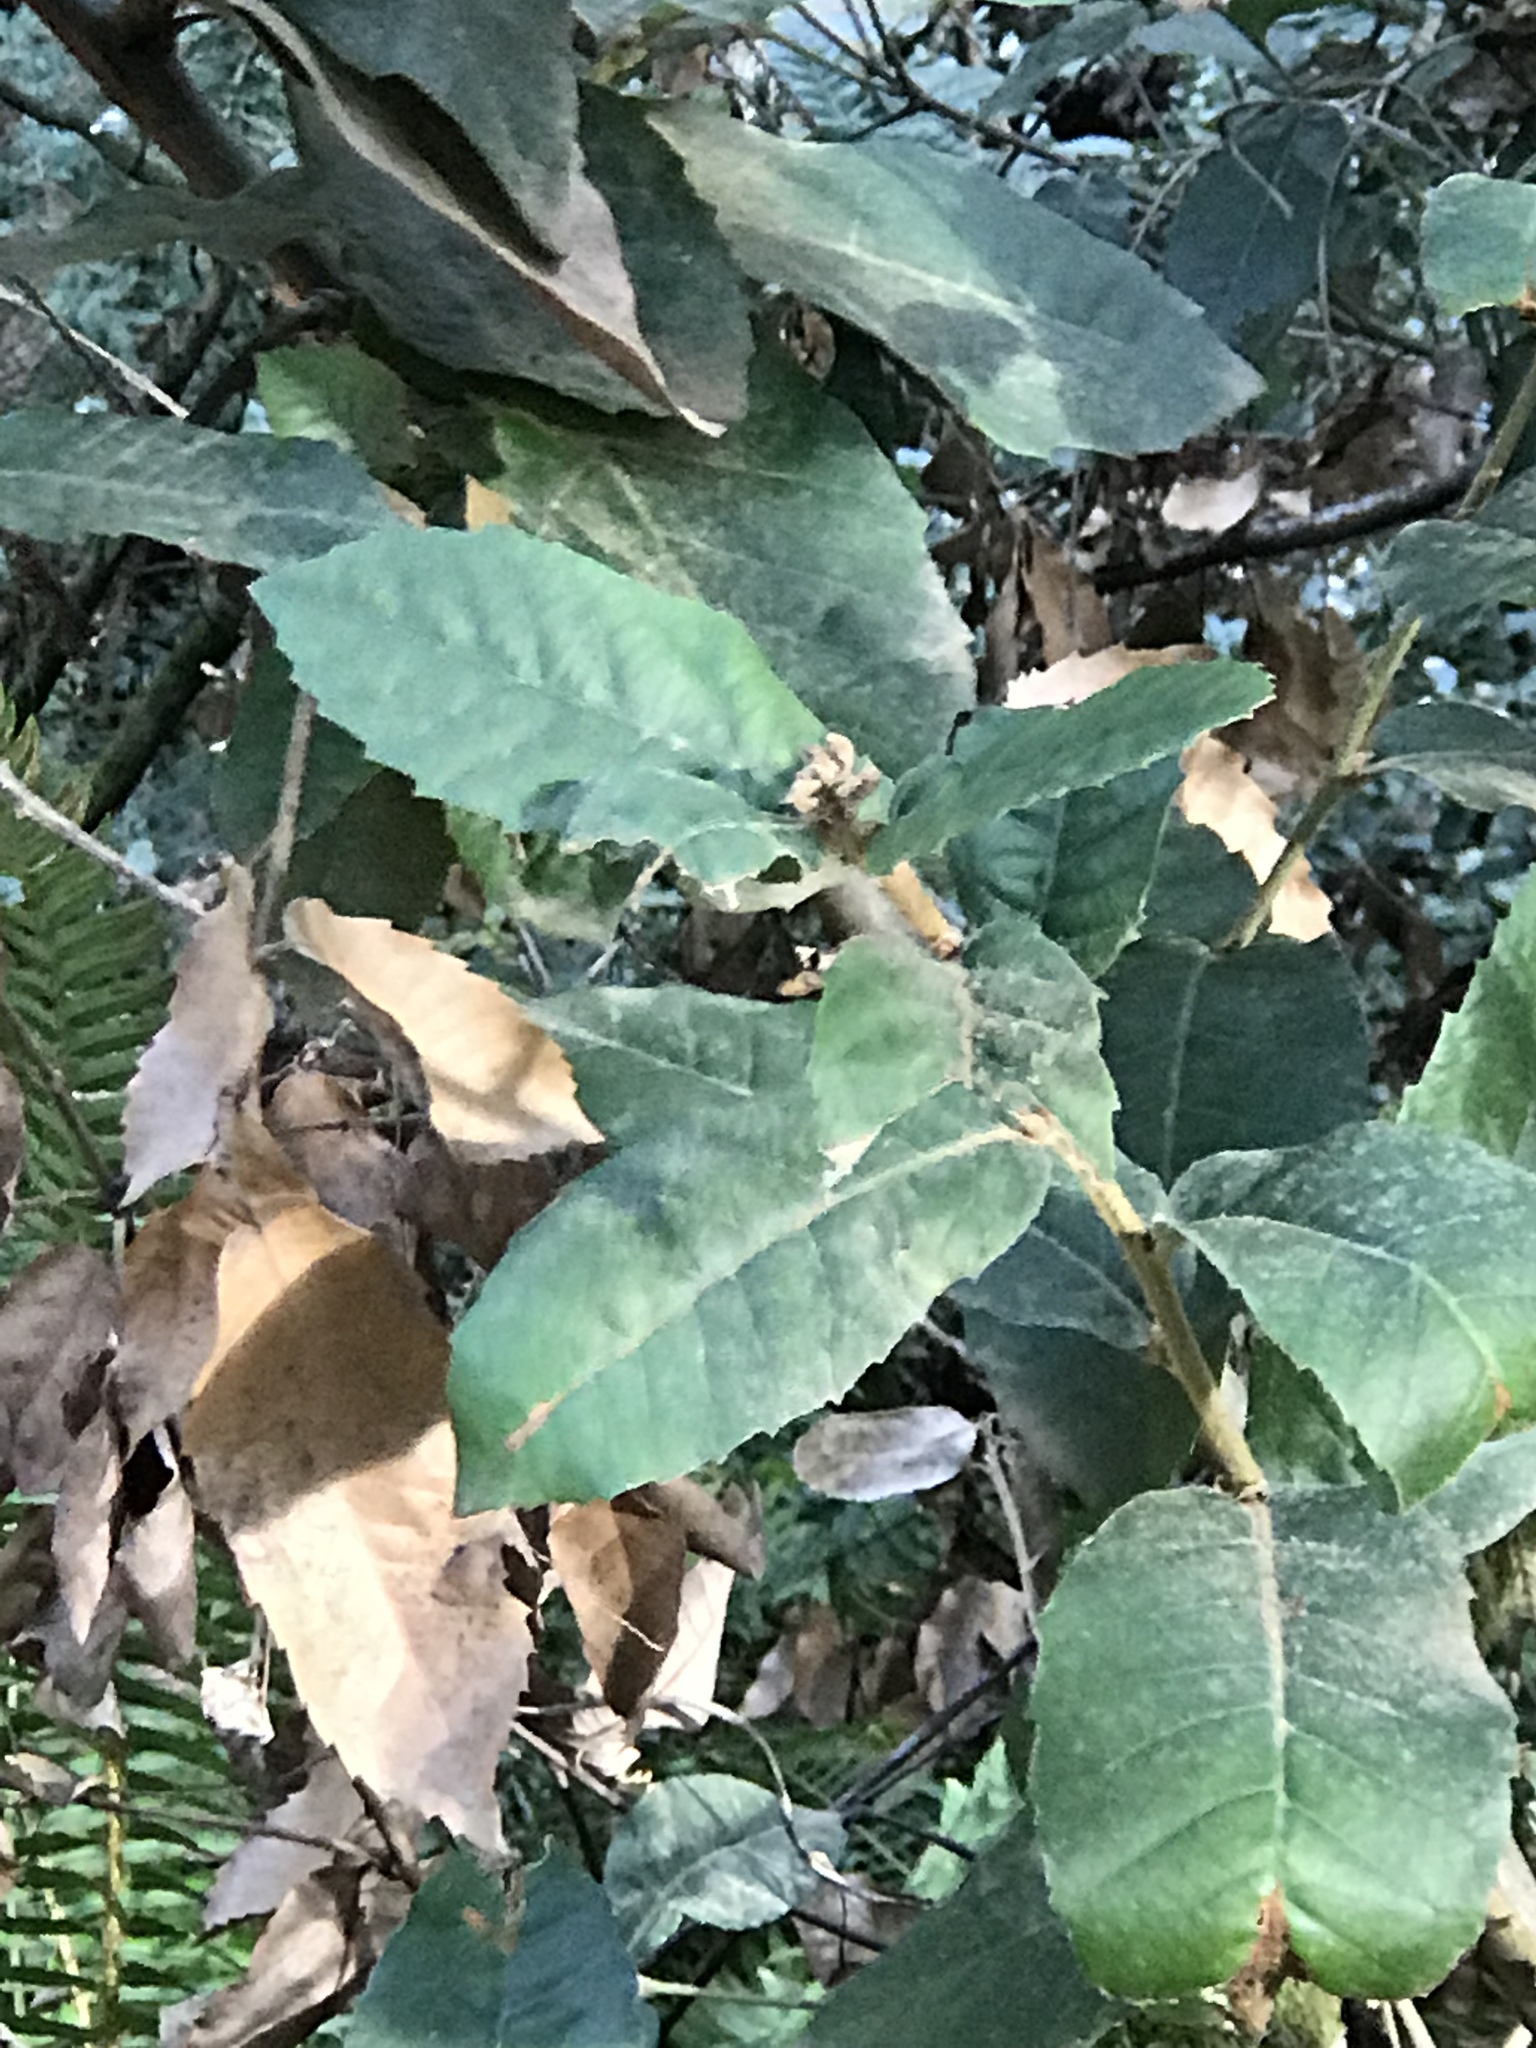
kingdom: Plantae
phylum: Tracheophyta
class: Magnoliopsida
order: Fagales
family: Fagaceae
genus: Notholithocarpus
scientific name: Notholithocarpus densiflorus
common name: Tan bark oak
